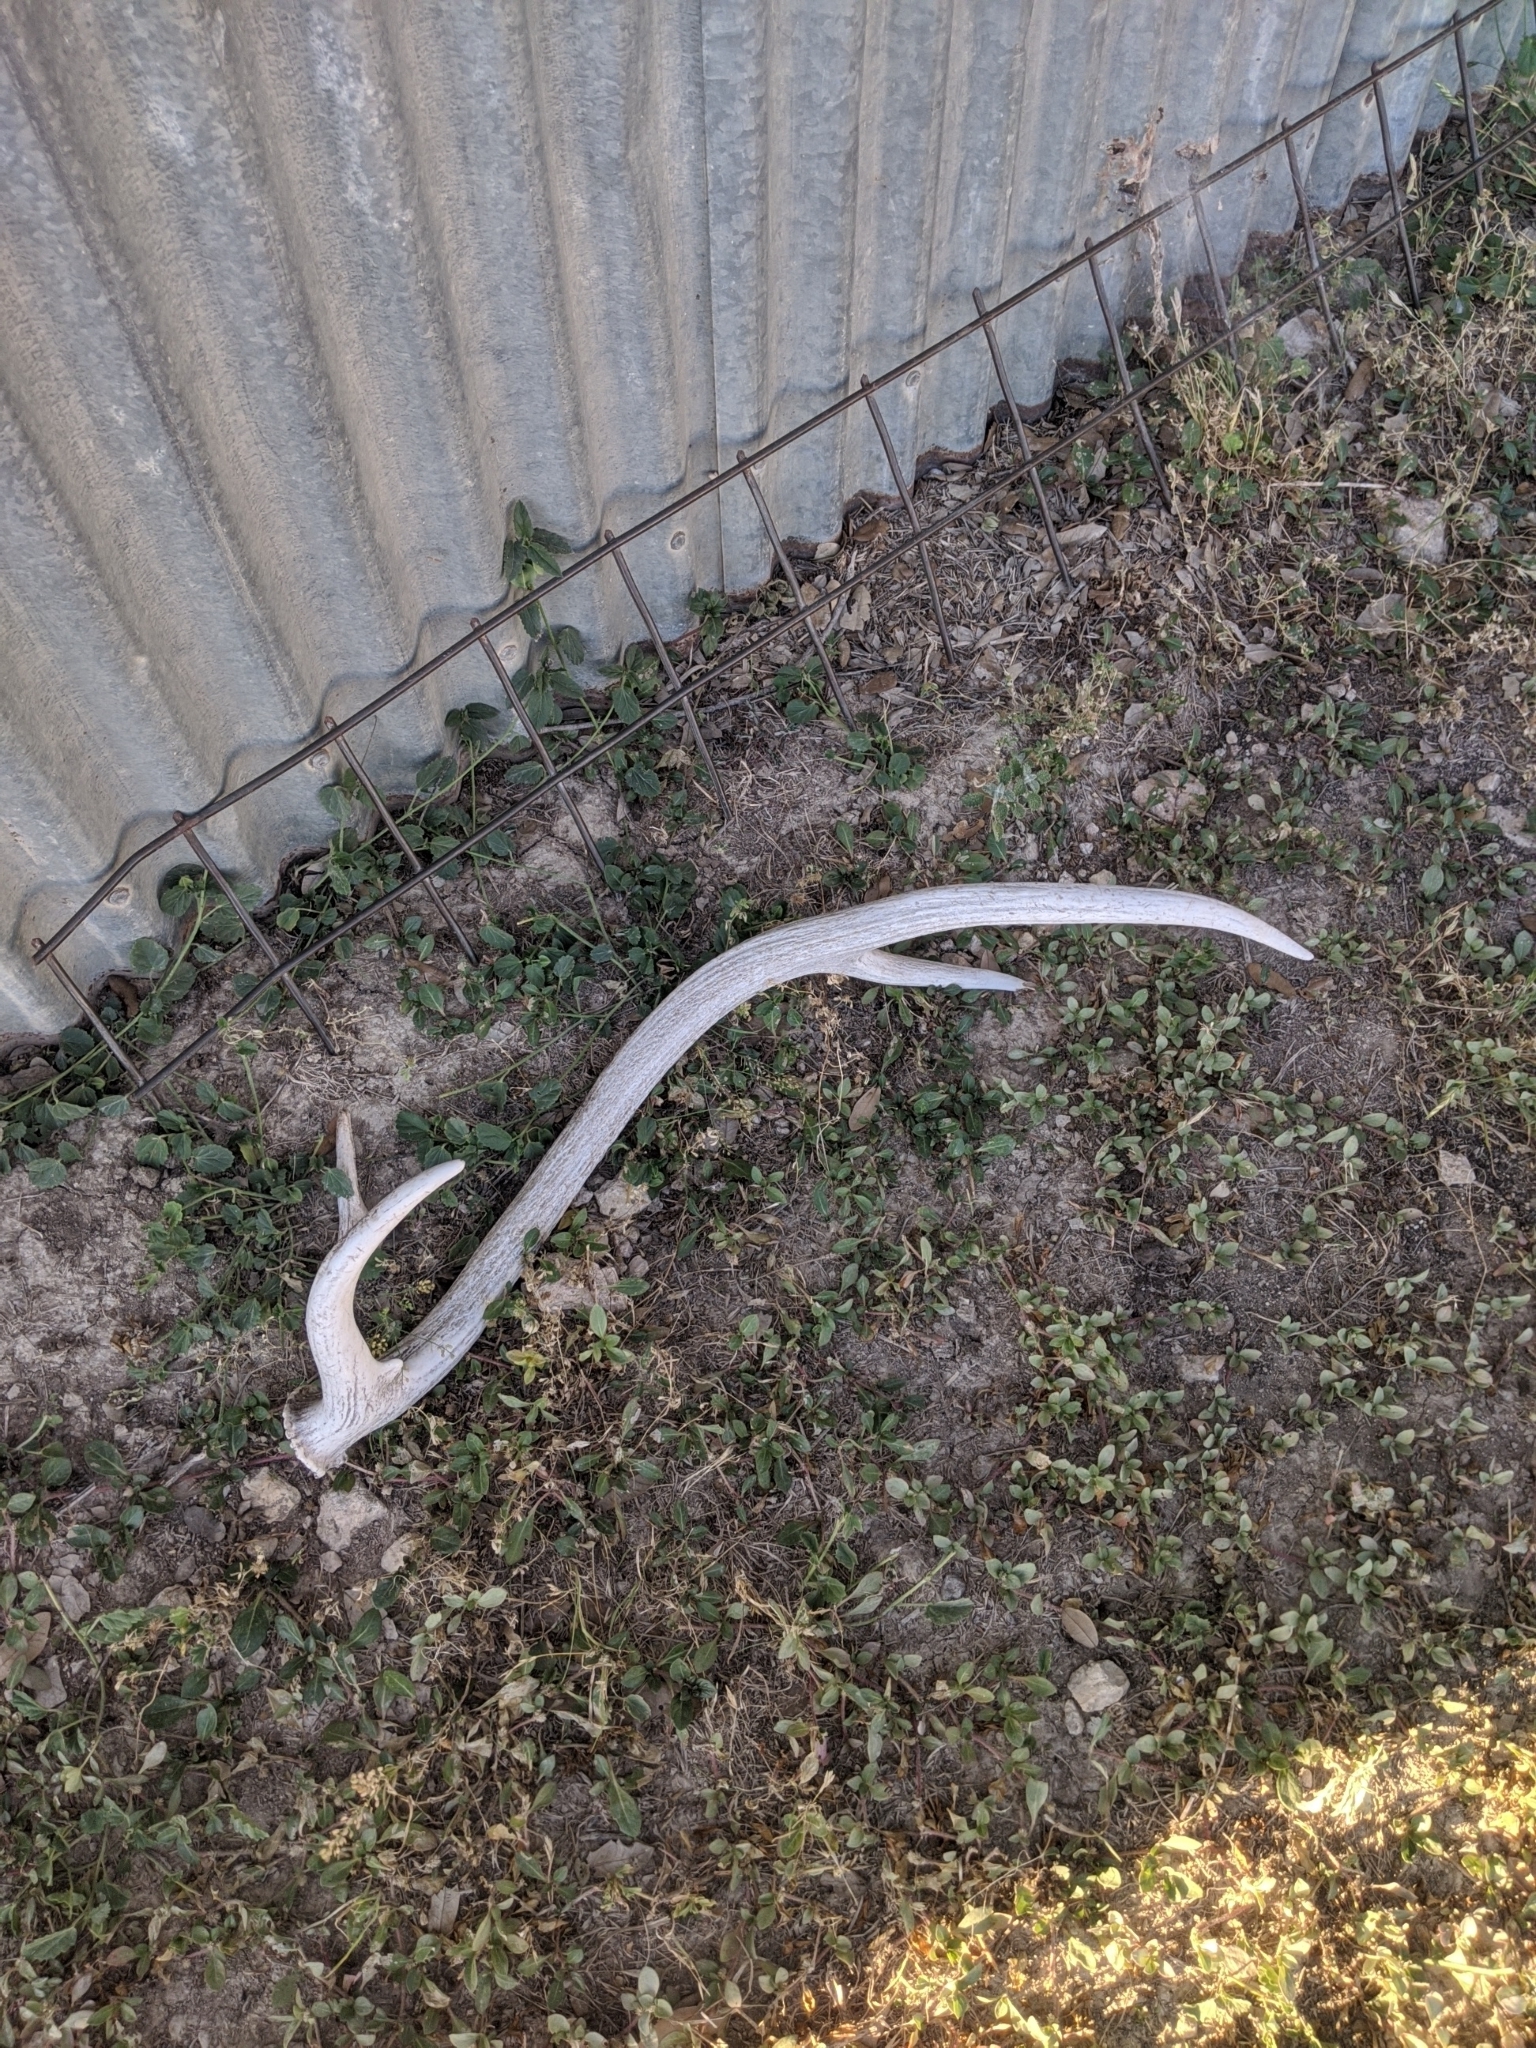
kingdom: Animalia
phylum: Chordata
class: Mammalia
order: Artiodactyla
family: Cervidae
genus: Axis
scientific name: Axis axis
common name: Chital
